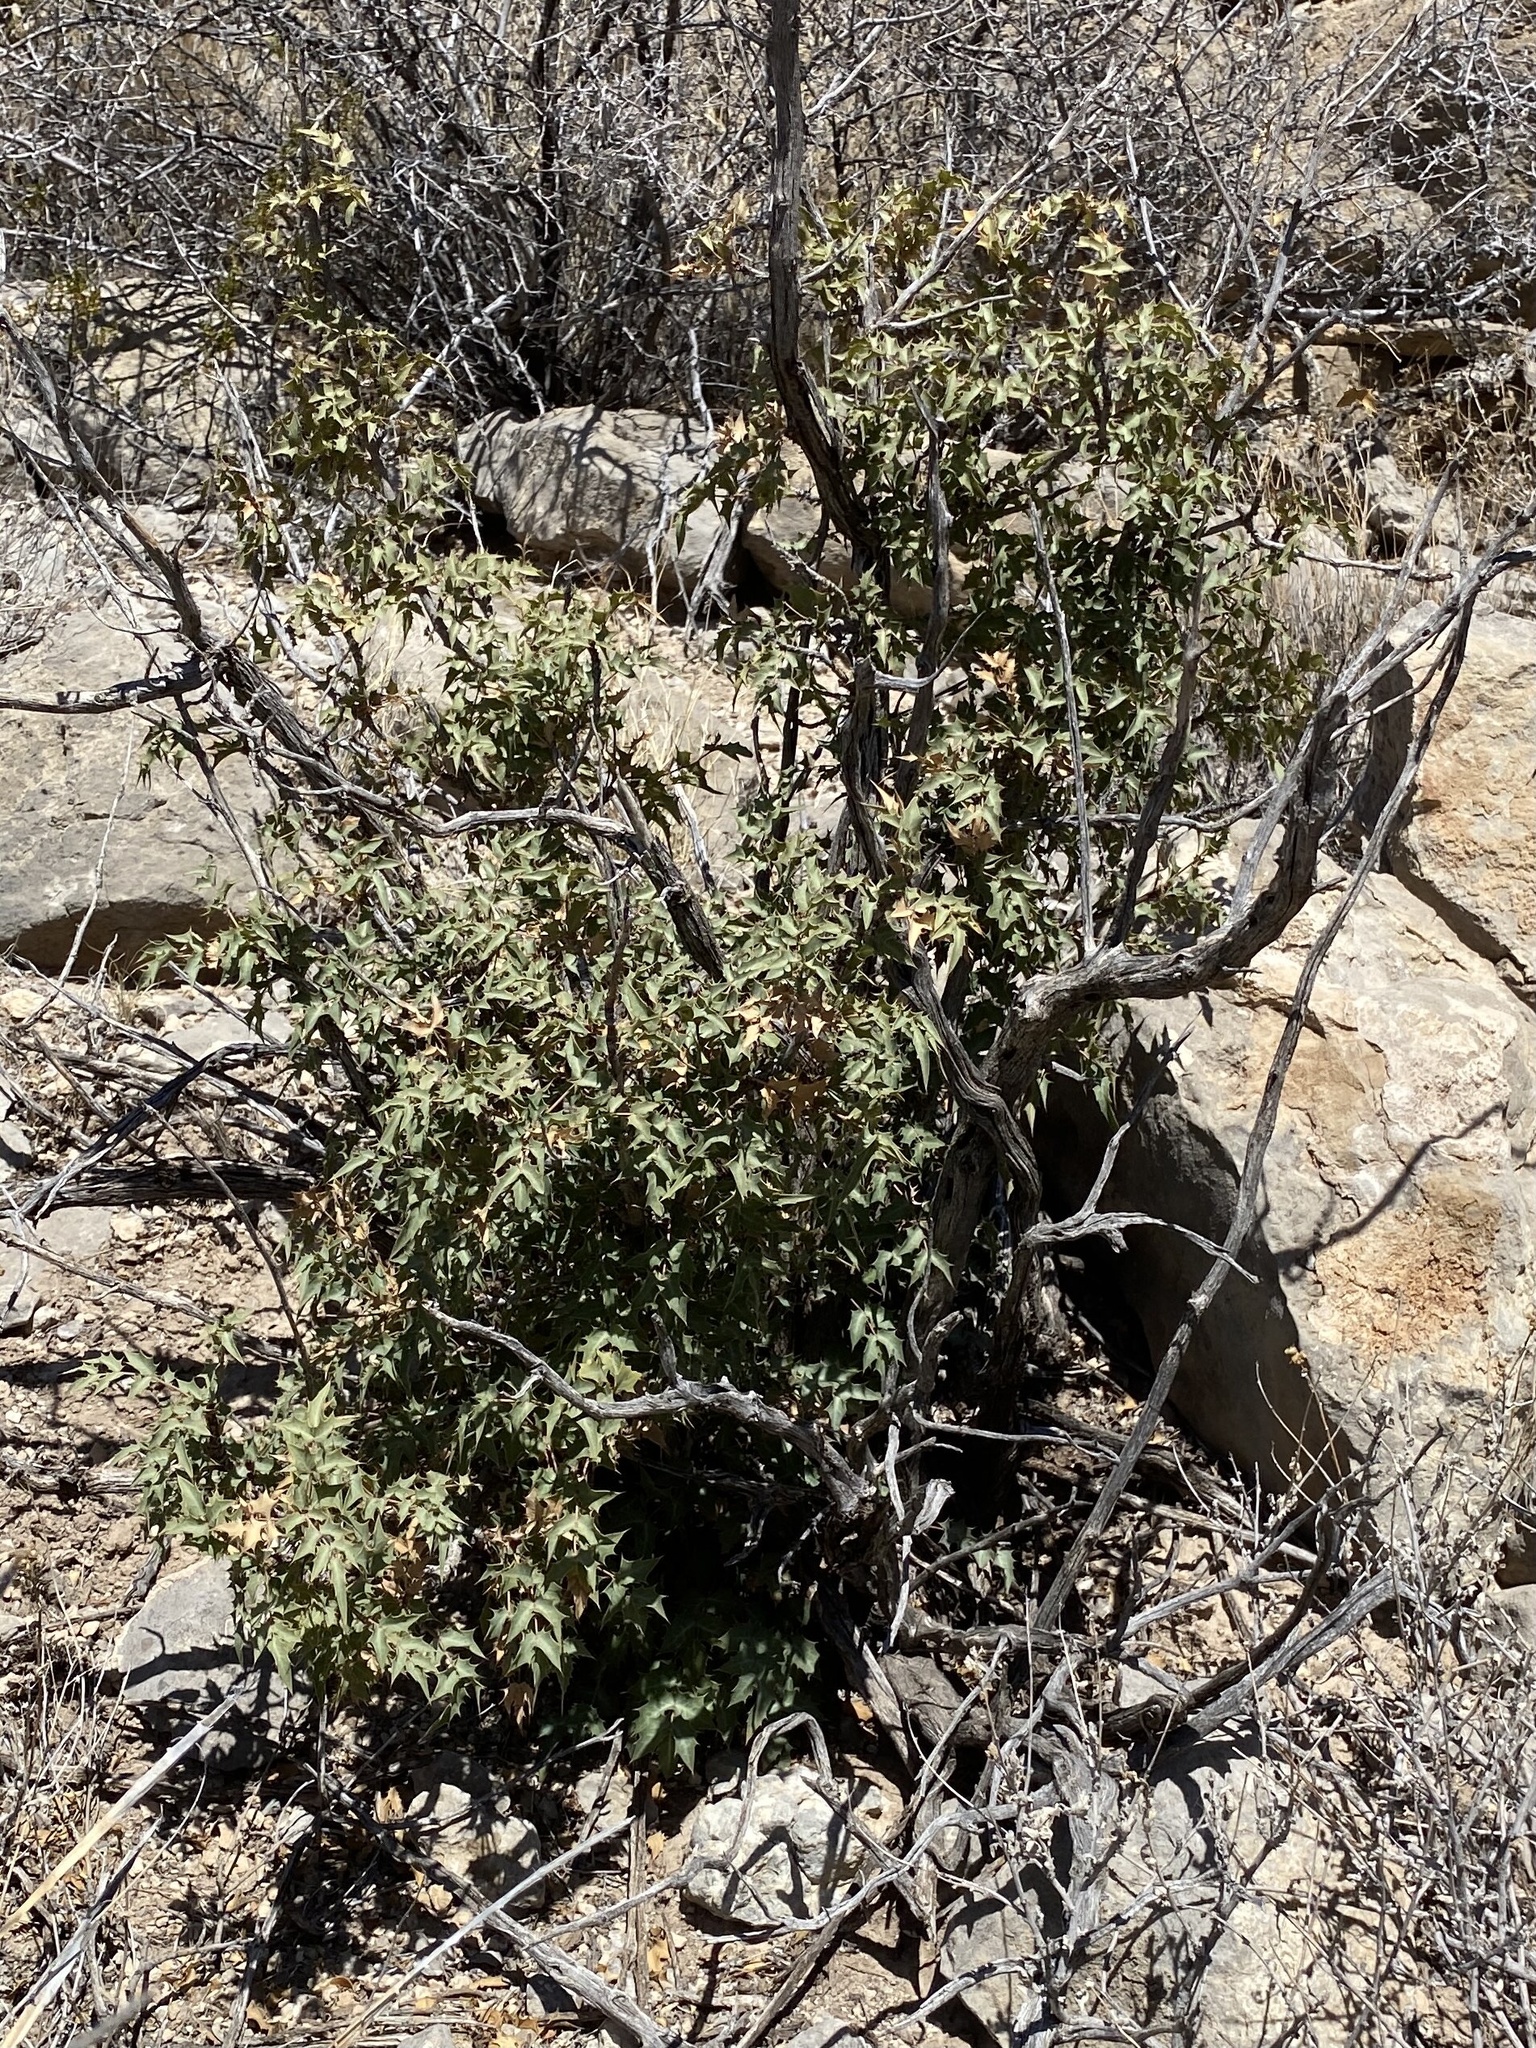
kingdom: Plantae
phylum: Tracheophyta
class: Magnoliopsida
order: Ranunculales
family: Berberidaceae
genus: Alloberberis
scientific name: Alloberberis haematocarpa
